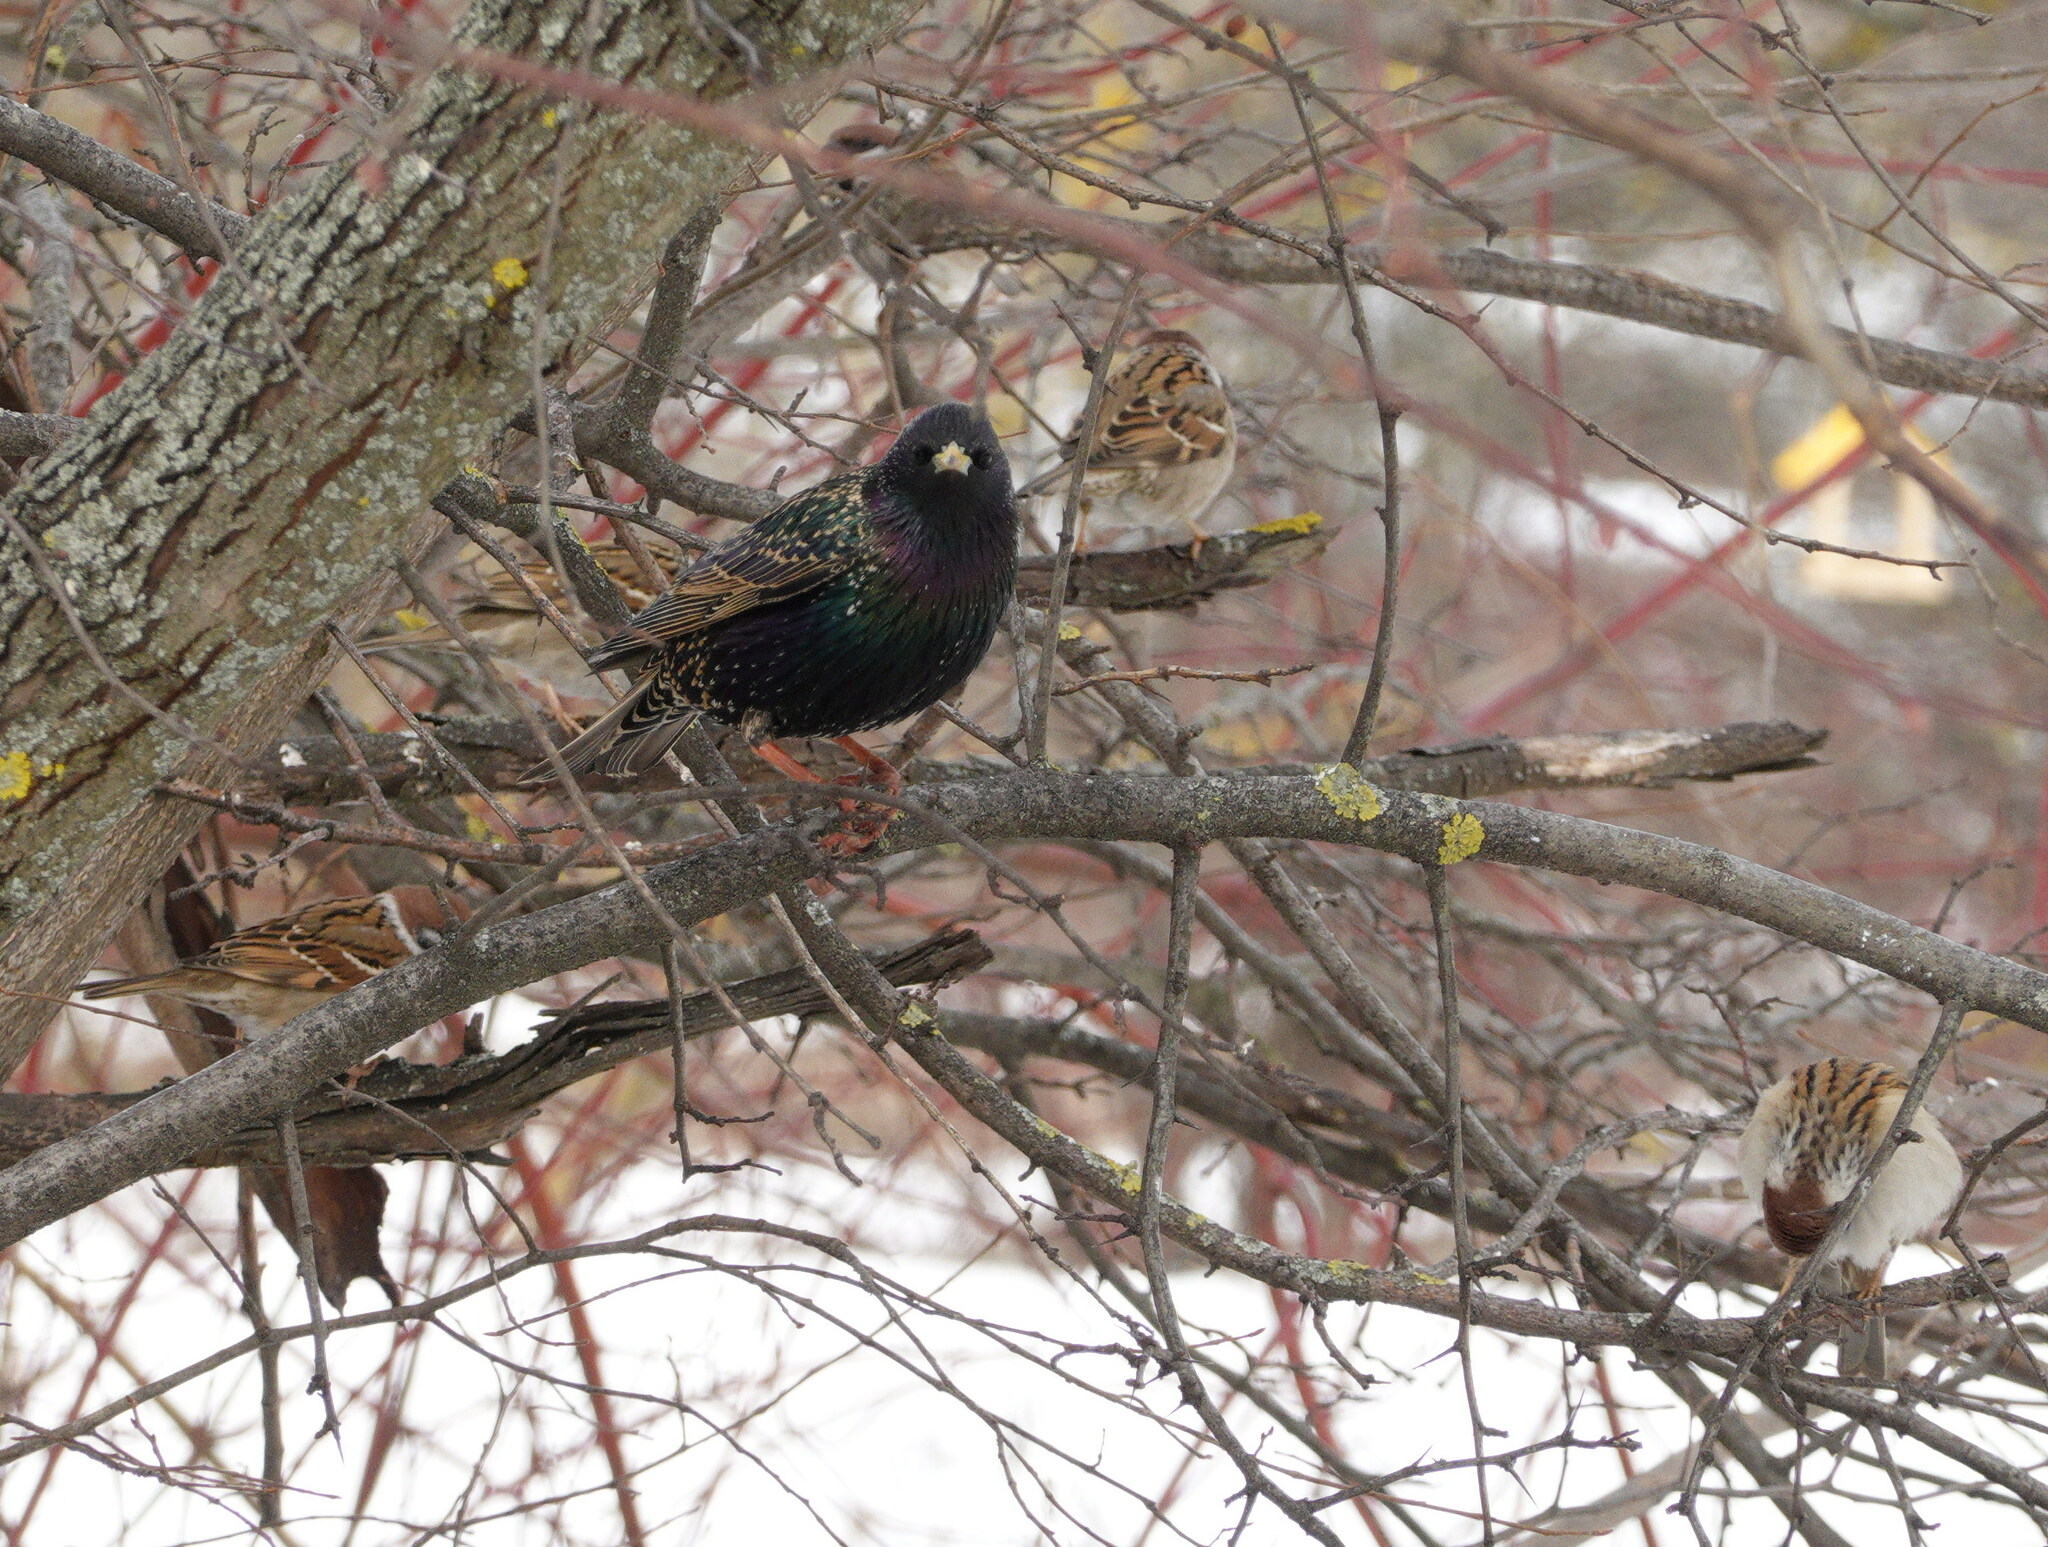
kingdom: Animalia
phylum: Chordata
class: Aves
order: Passeriformes
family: Sturnidae
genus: Sturnus
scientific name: Sturnus vulgaris
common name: Common starling
